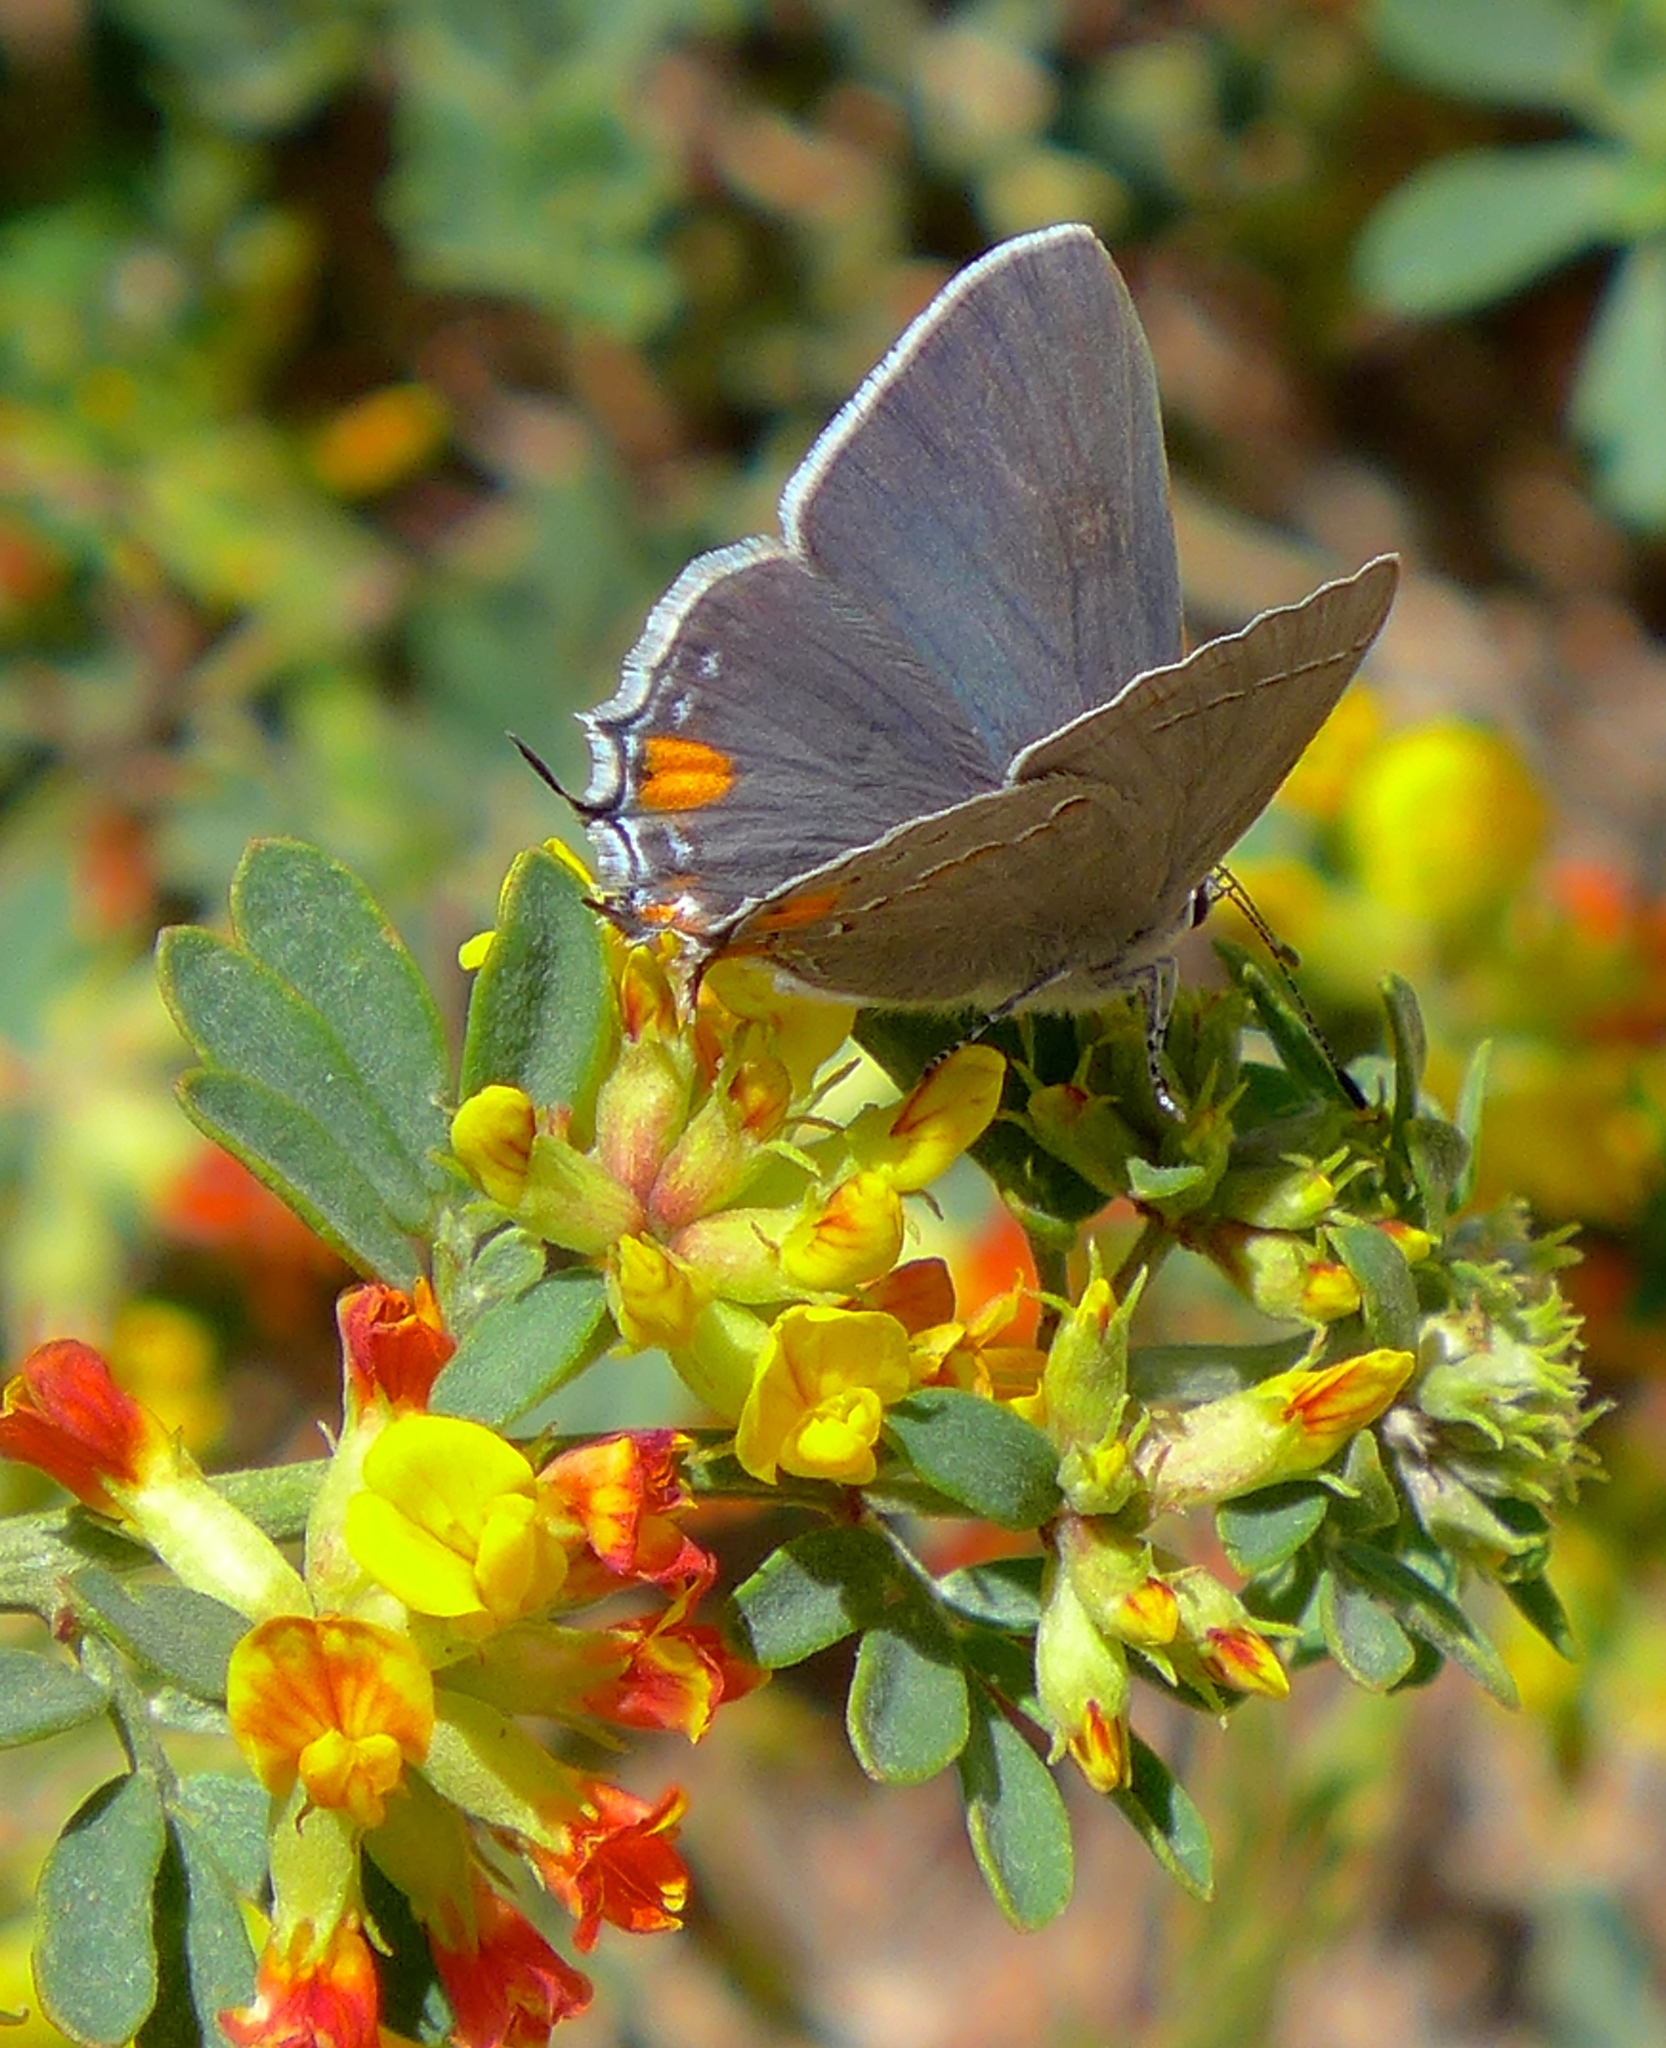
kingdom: Animalia
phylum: Arthropoda
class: Insecta
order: Lepidoptera
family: Lycaenidae
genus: Strymon
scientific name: Strymon melinus
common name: Gray hairstreak
